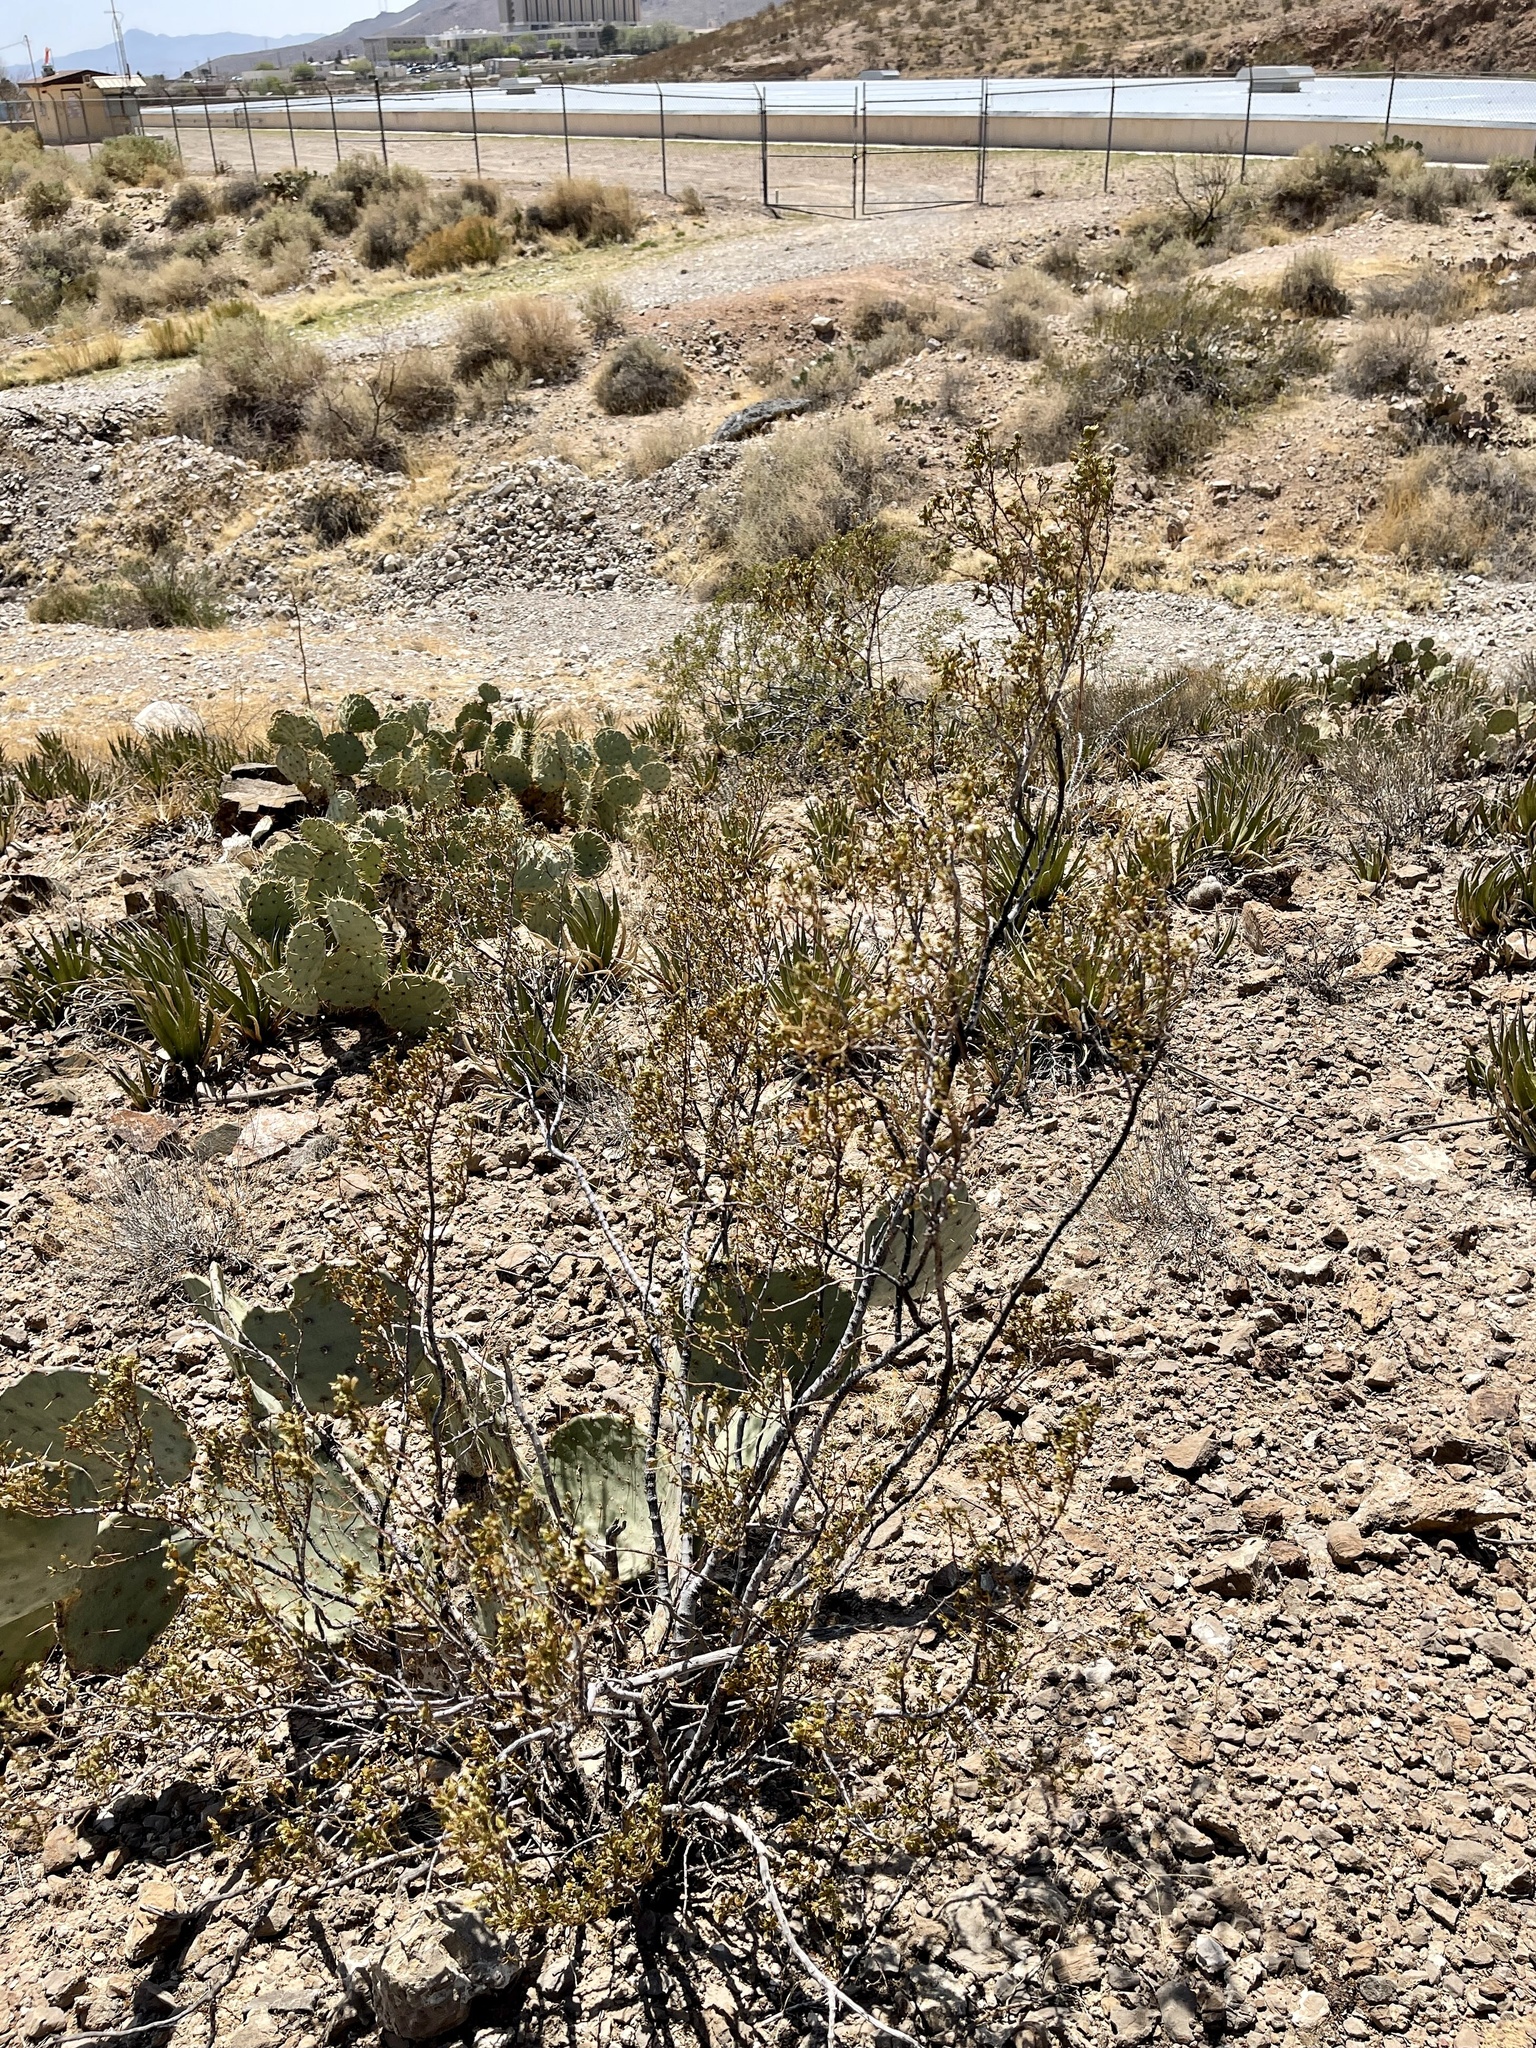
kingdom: Plantae
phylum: Tracheophyta
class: Magnoliopsida
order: Zygophyllales
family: Zygophyllaceae
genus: Larrea
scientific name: Larrea tridentata
